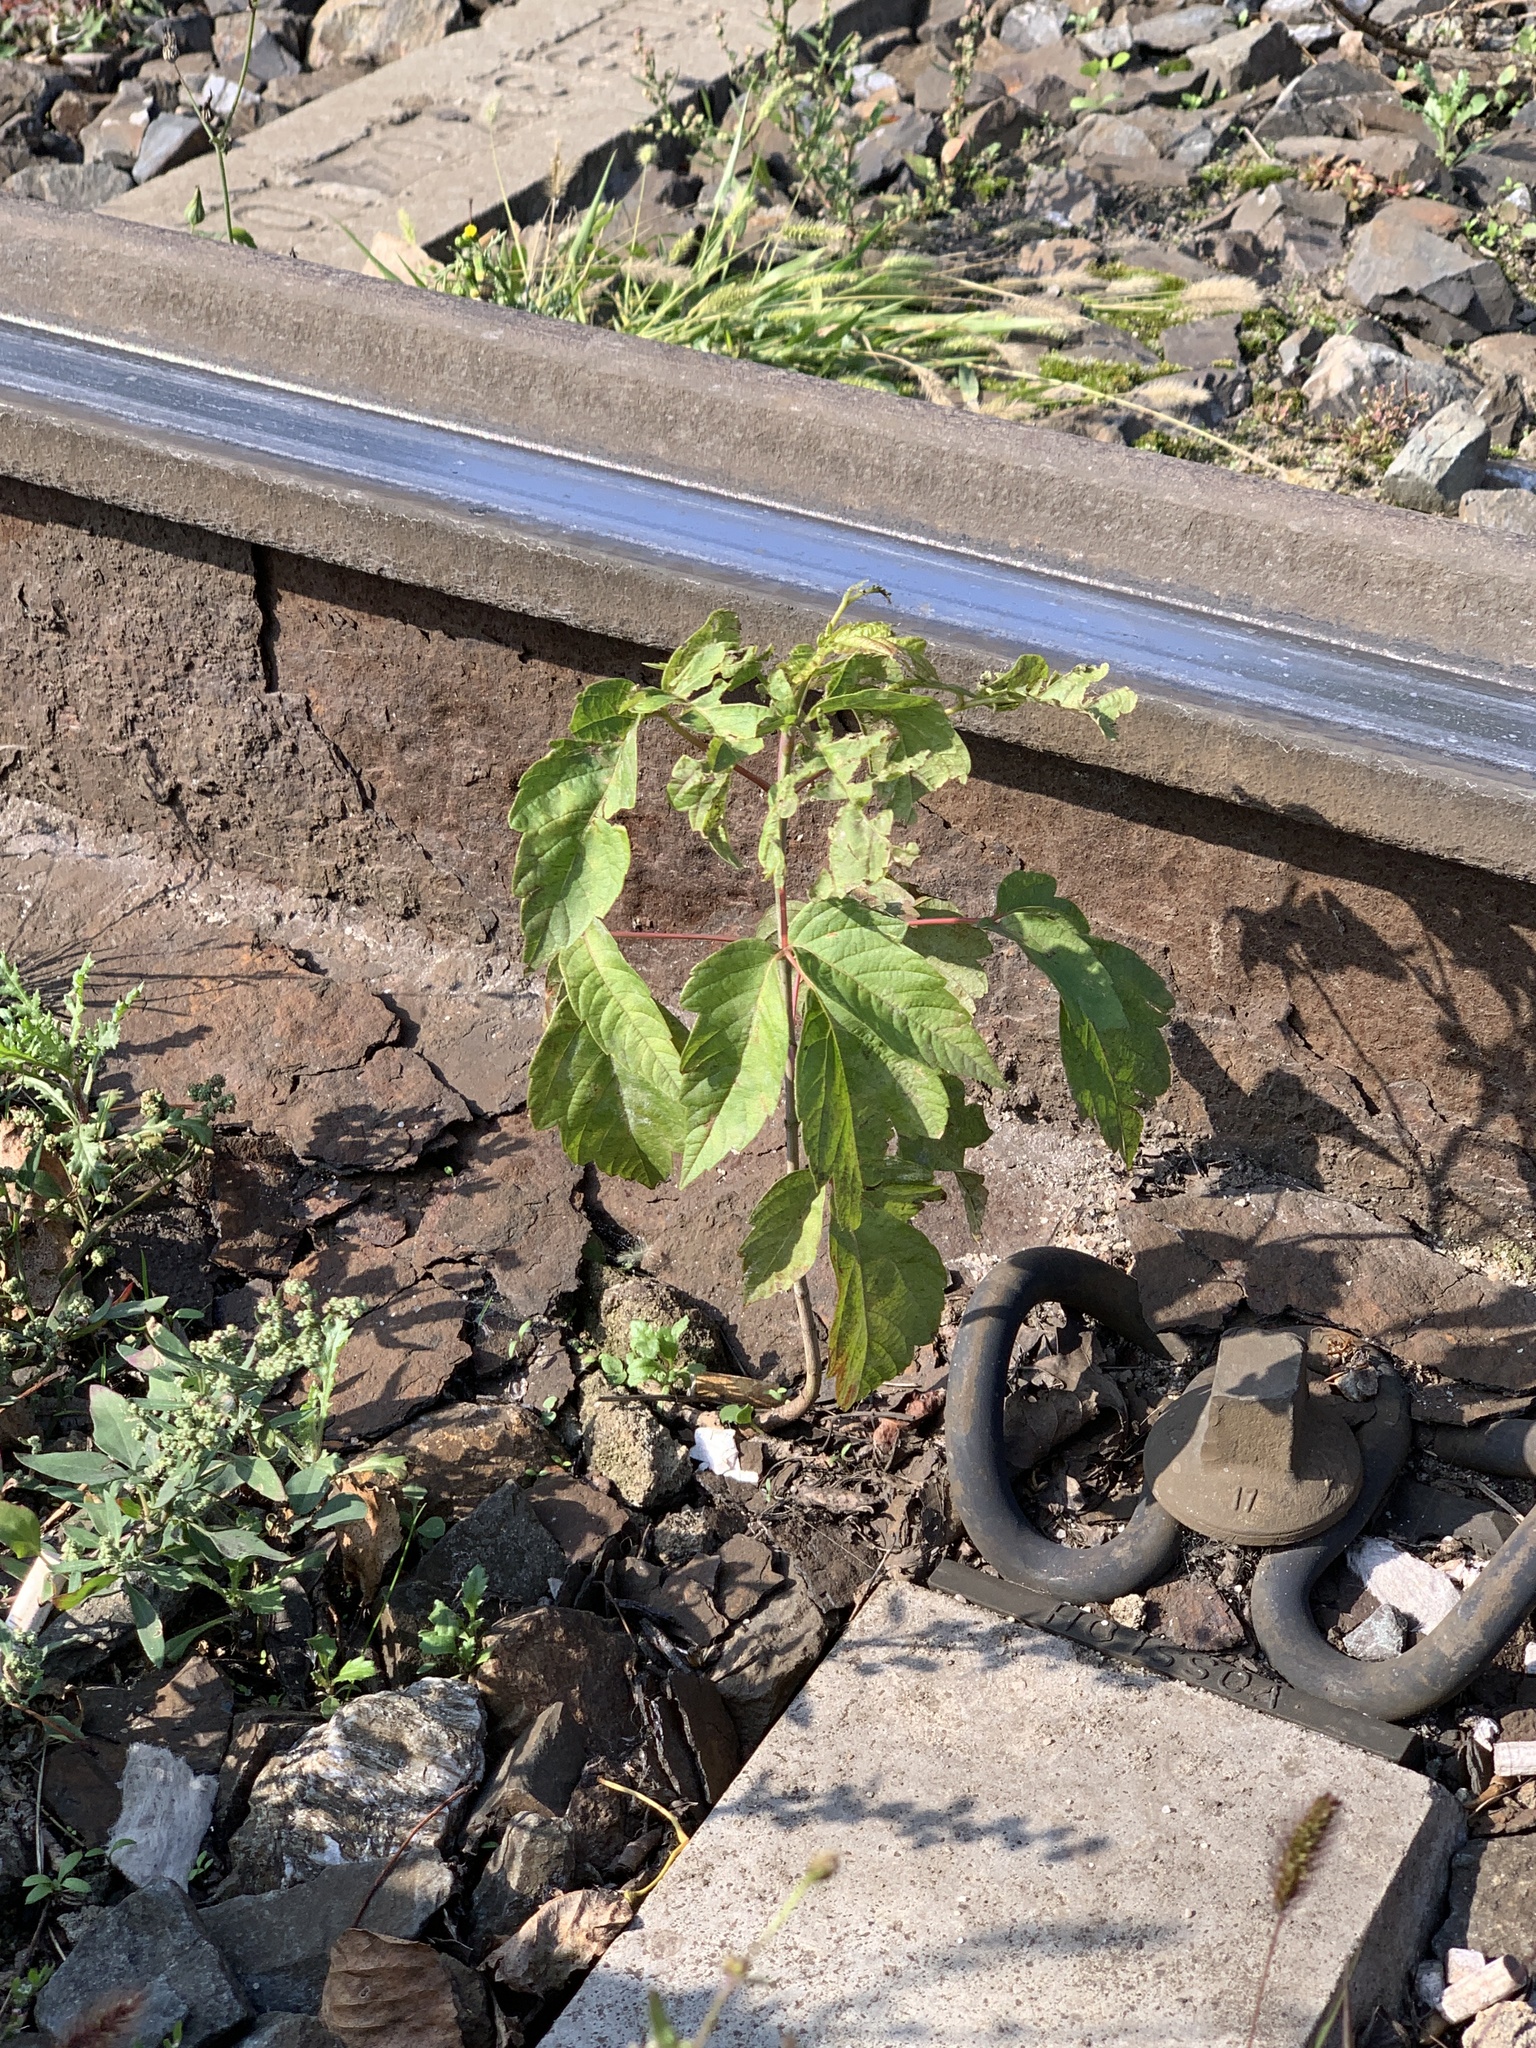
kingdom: Plantae
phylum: Tracheophyta
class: Magnoliopsida
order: Sapindales
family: Sapindaceae
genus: Acer
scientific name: Acer negundo
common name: Ashleaf maple
